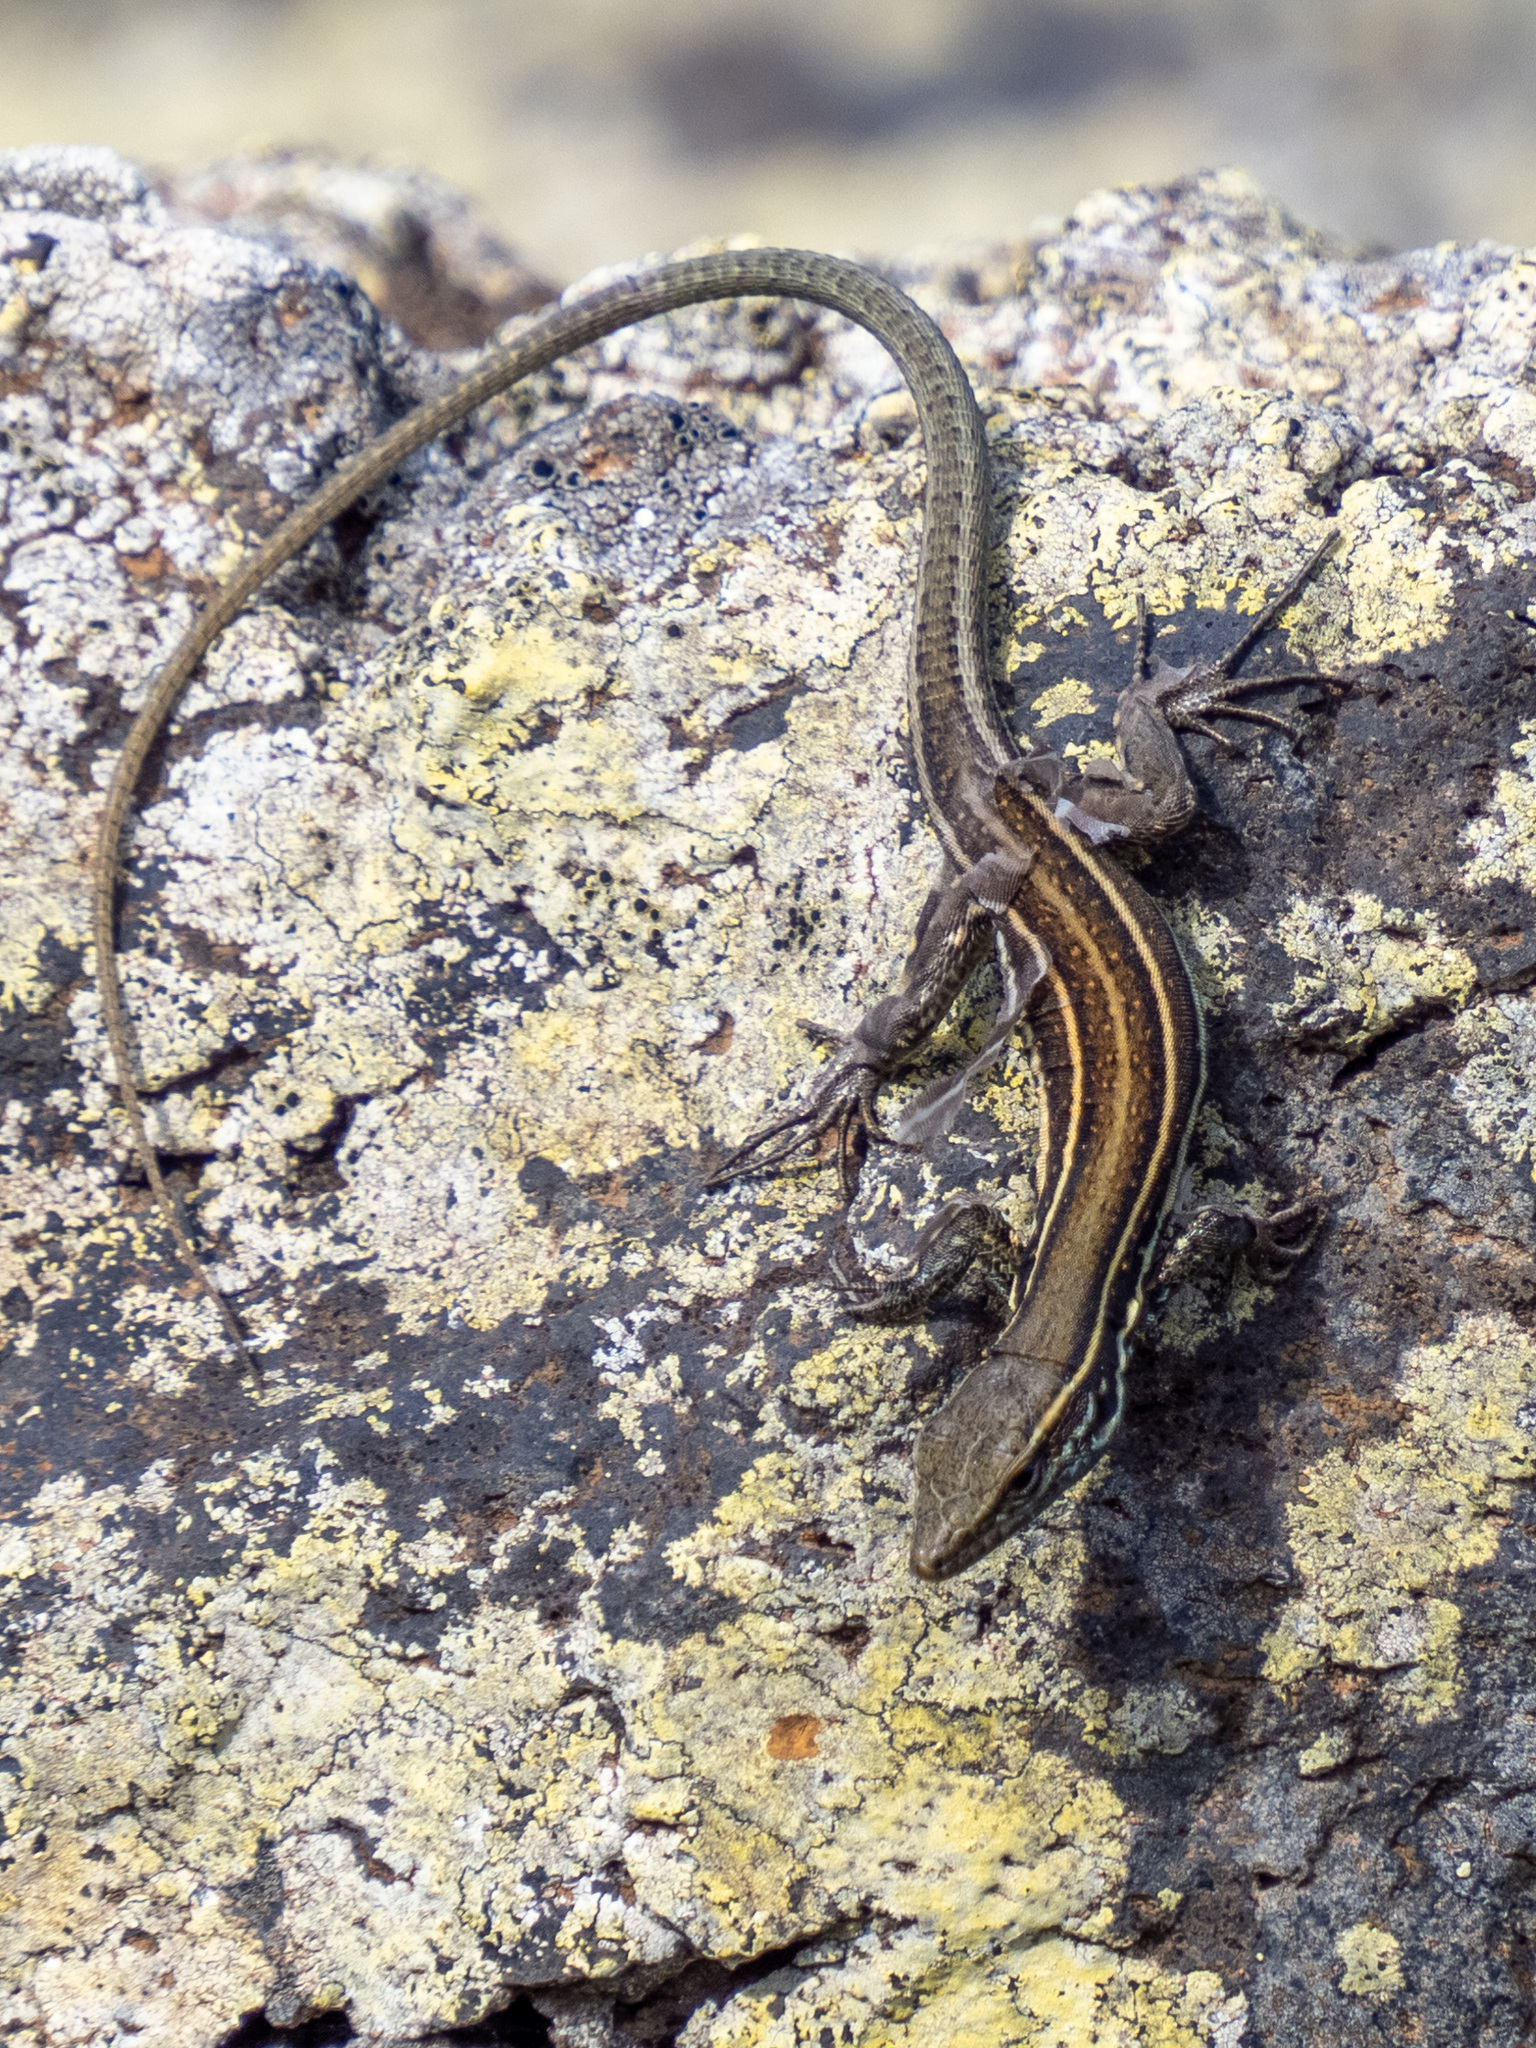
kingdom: Animalia
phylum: Chordata
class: Squamata
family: Lacertidae
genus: Gallotia
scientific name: Gallotia caesaris
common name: Boettger's lizard
